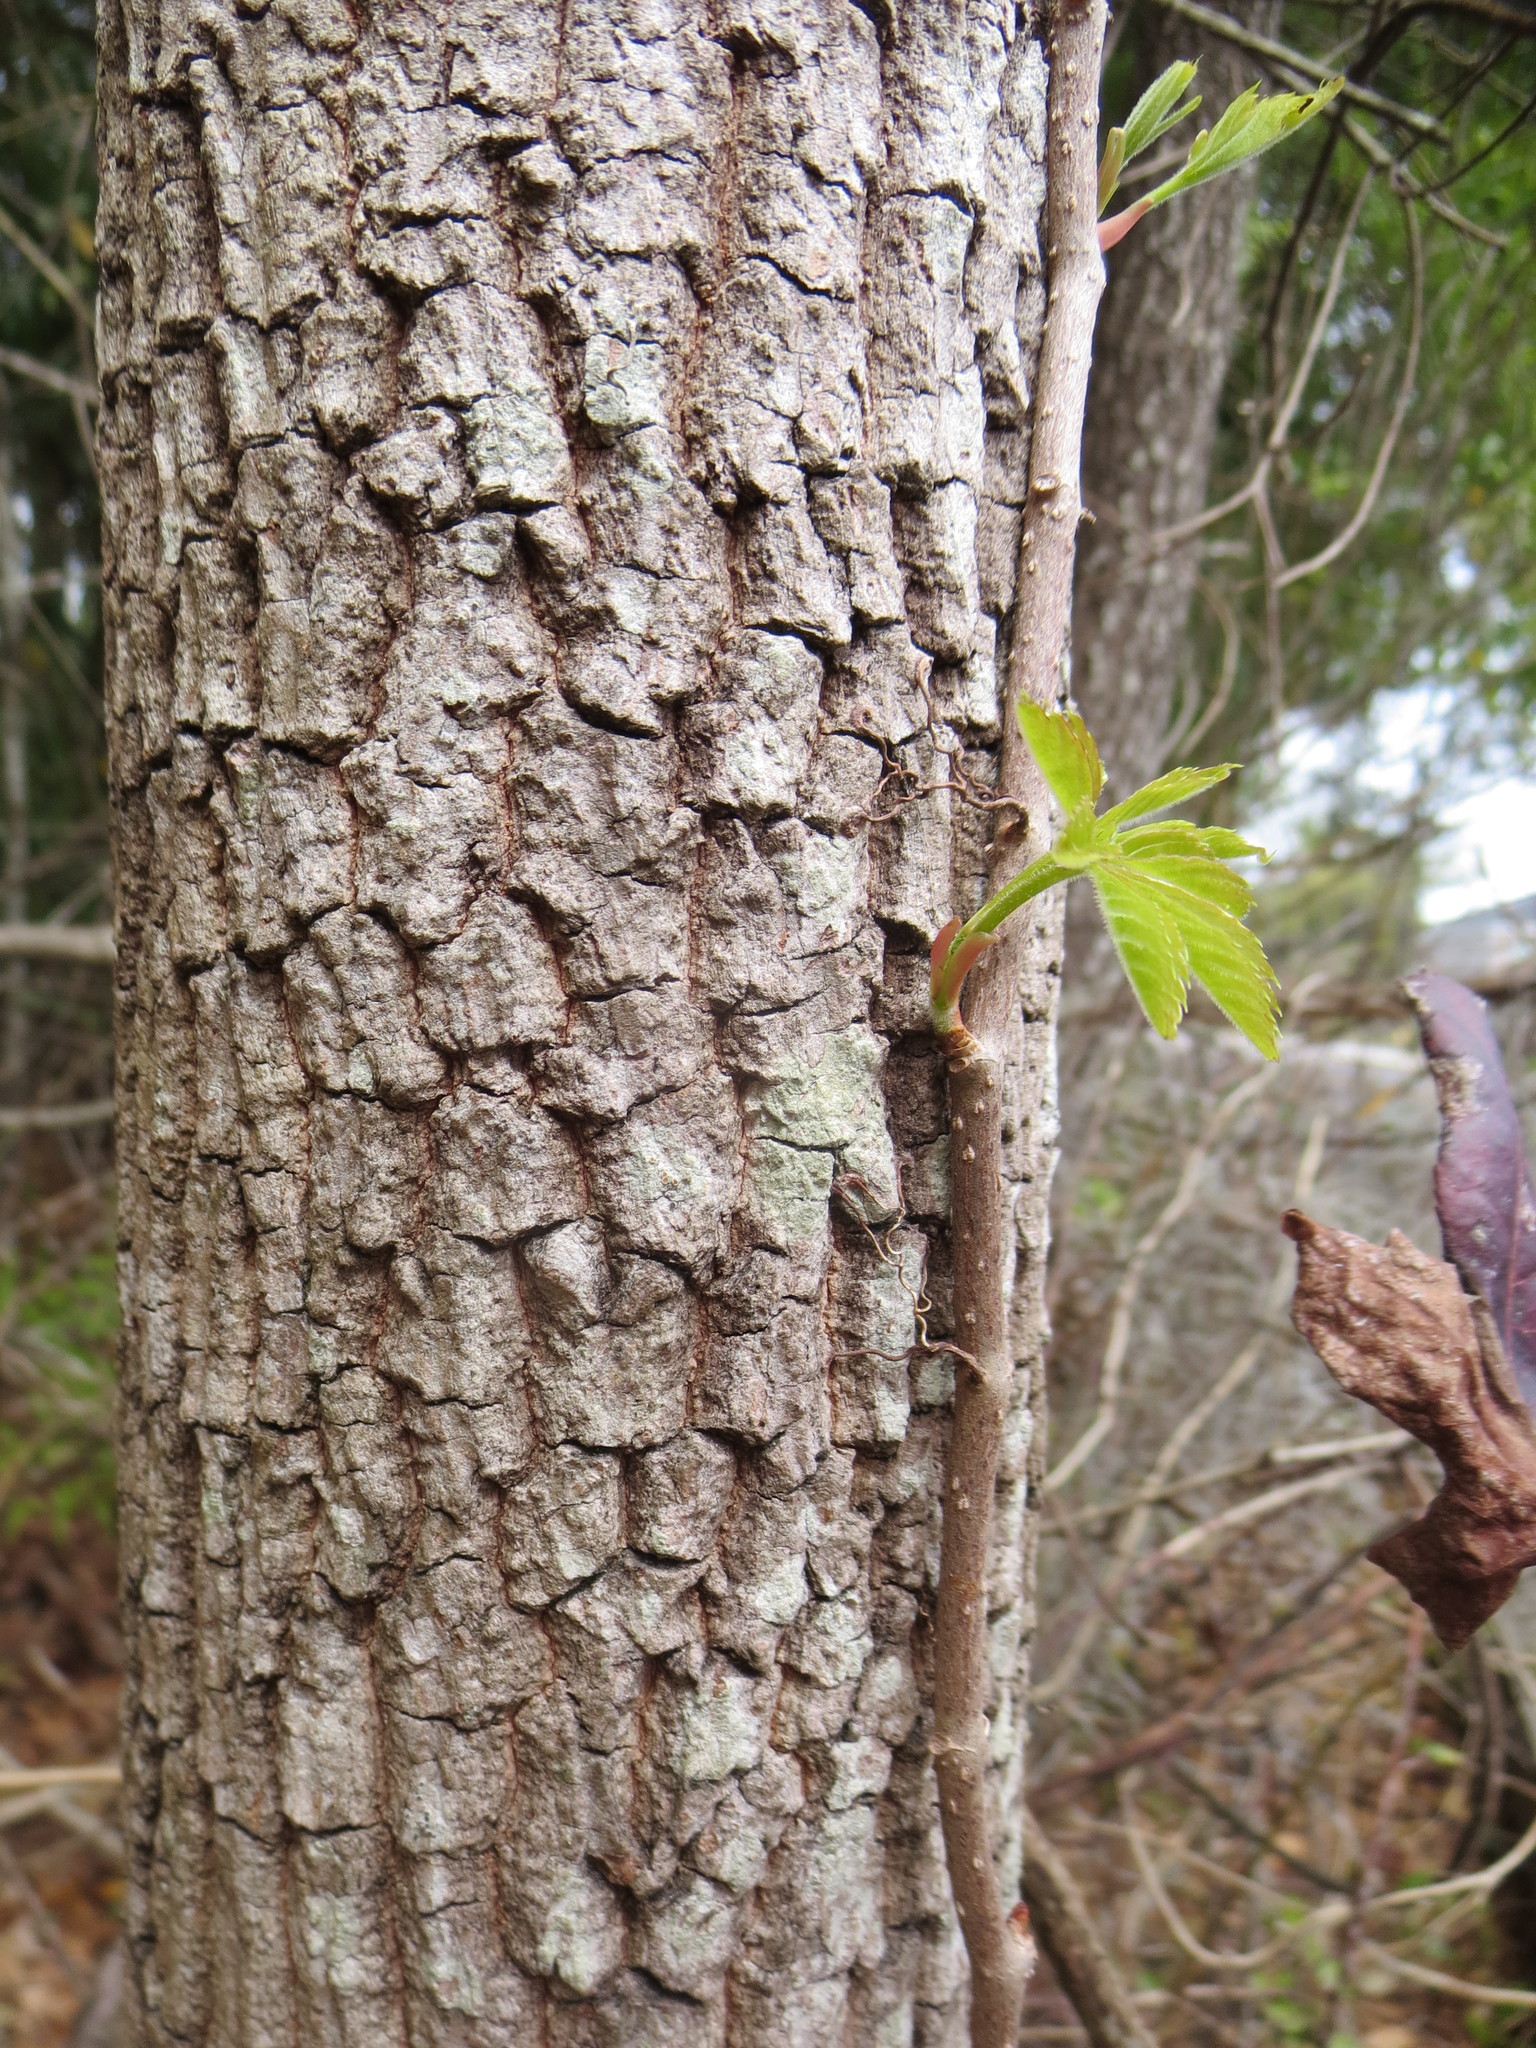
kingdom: Plantae
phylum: Tracheophyta
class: Magnoliopsida
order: Ericales
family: Ebenaceae
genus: Diospyros
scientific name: Diospyros virginiana
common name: Persimmon
